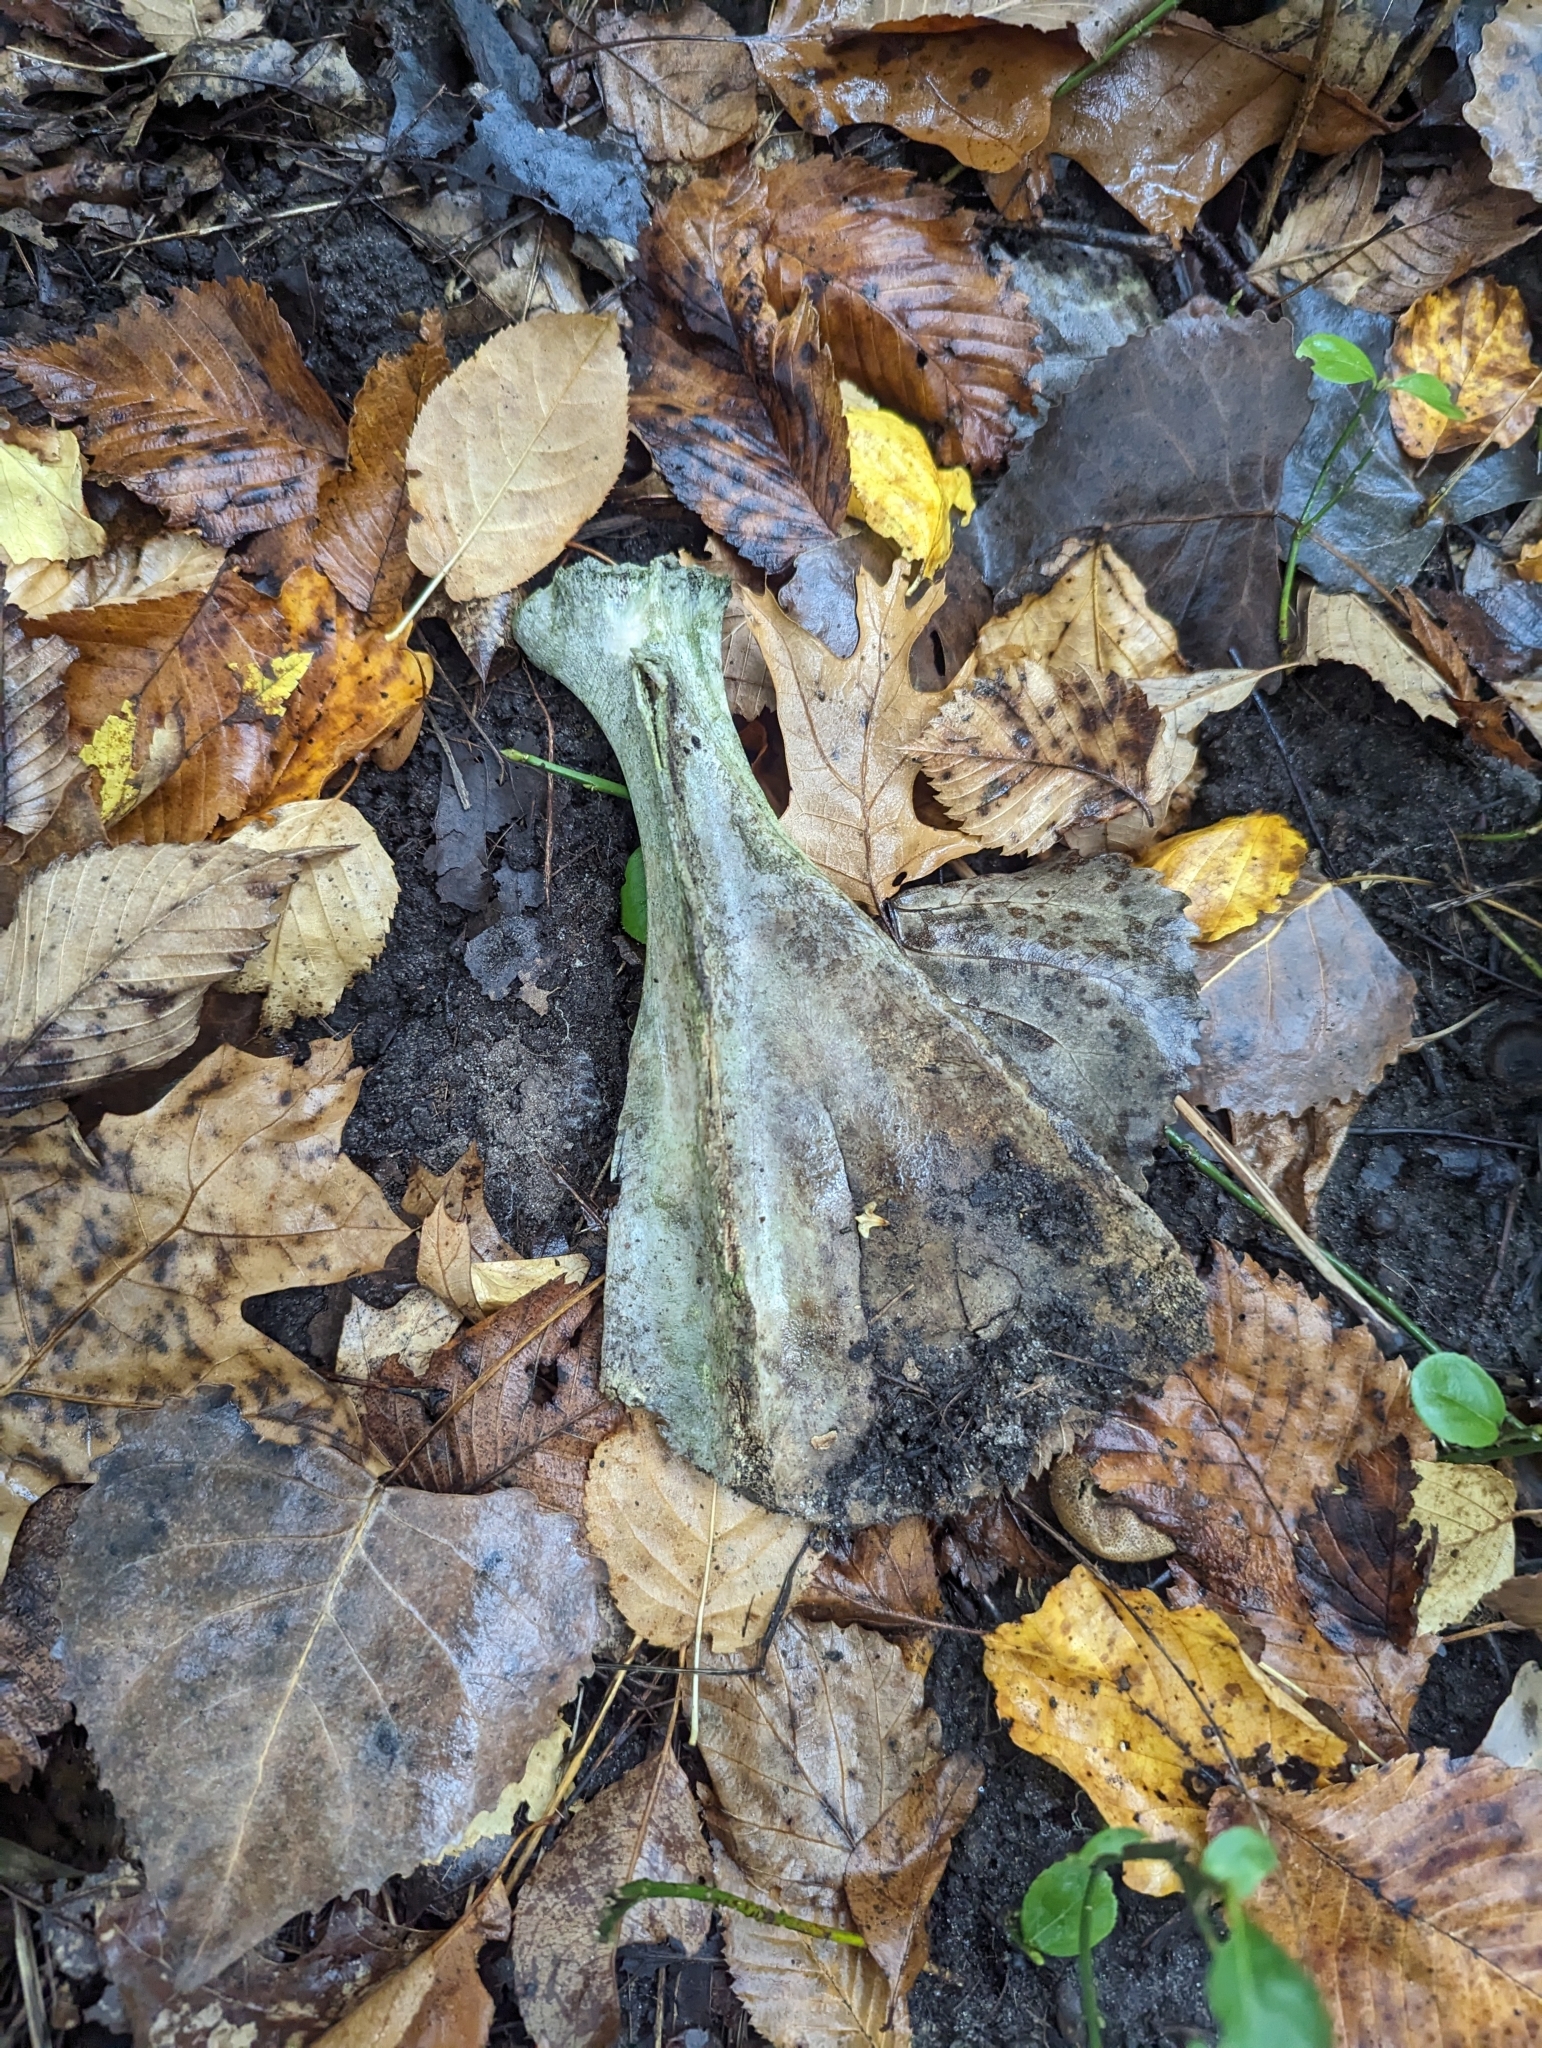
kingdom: Animalia
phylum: Chordata
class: Mammalia
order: Artiodactyla
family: Cervidae
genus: Odocoileus
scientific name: Odocoileus virginianus
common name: White-tailed deer
